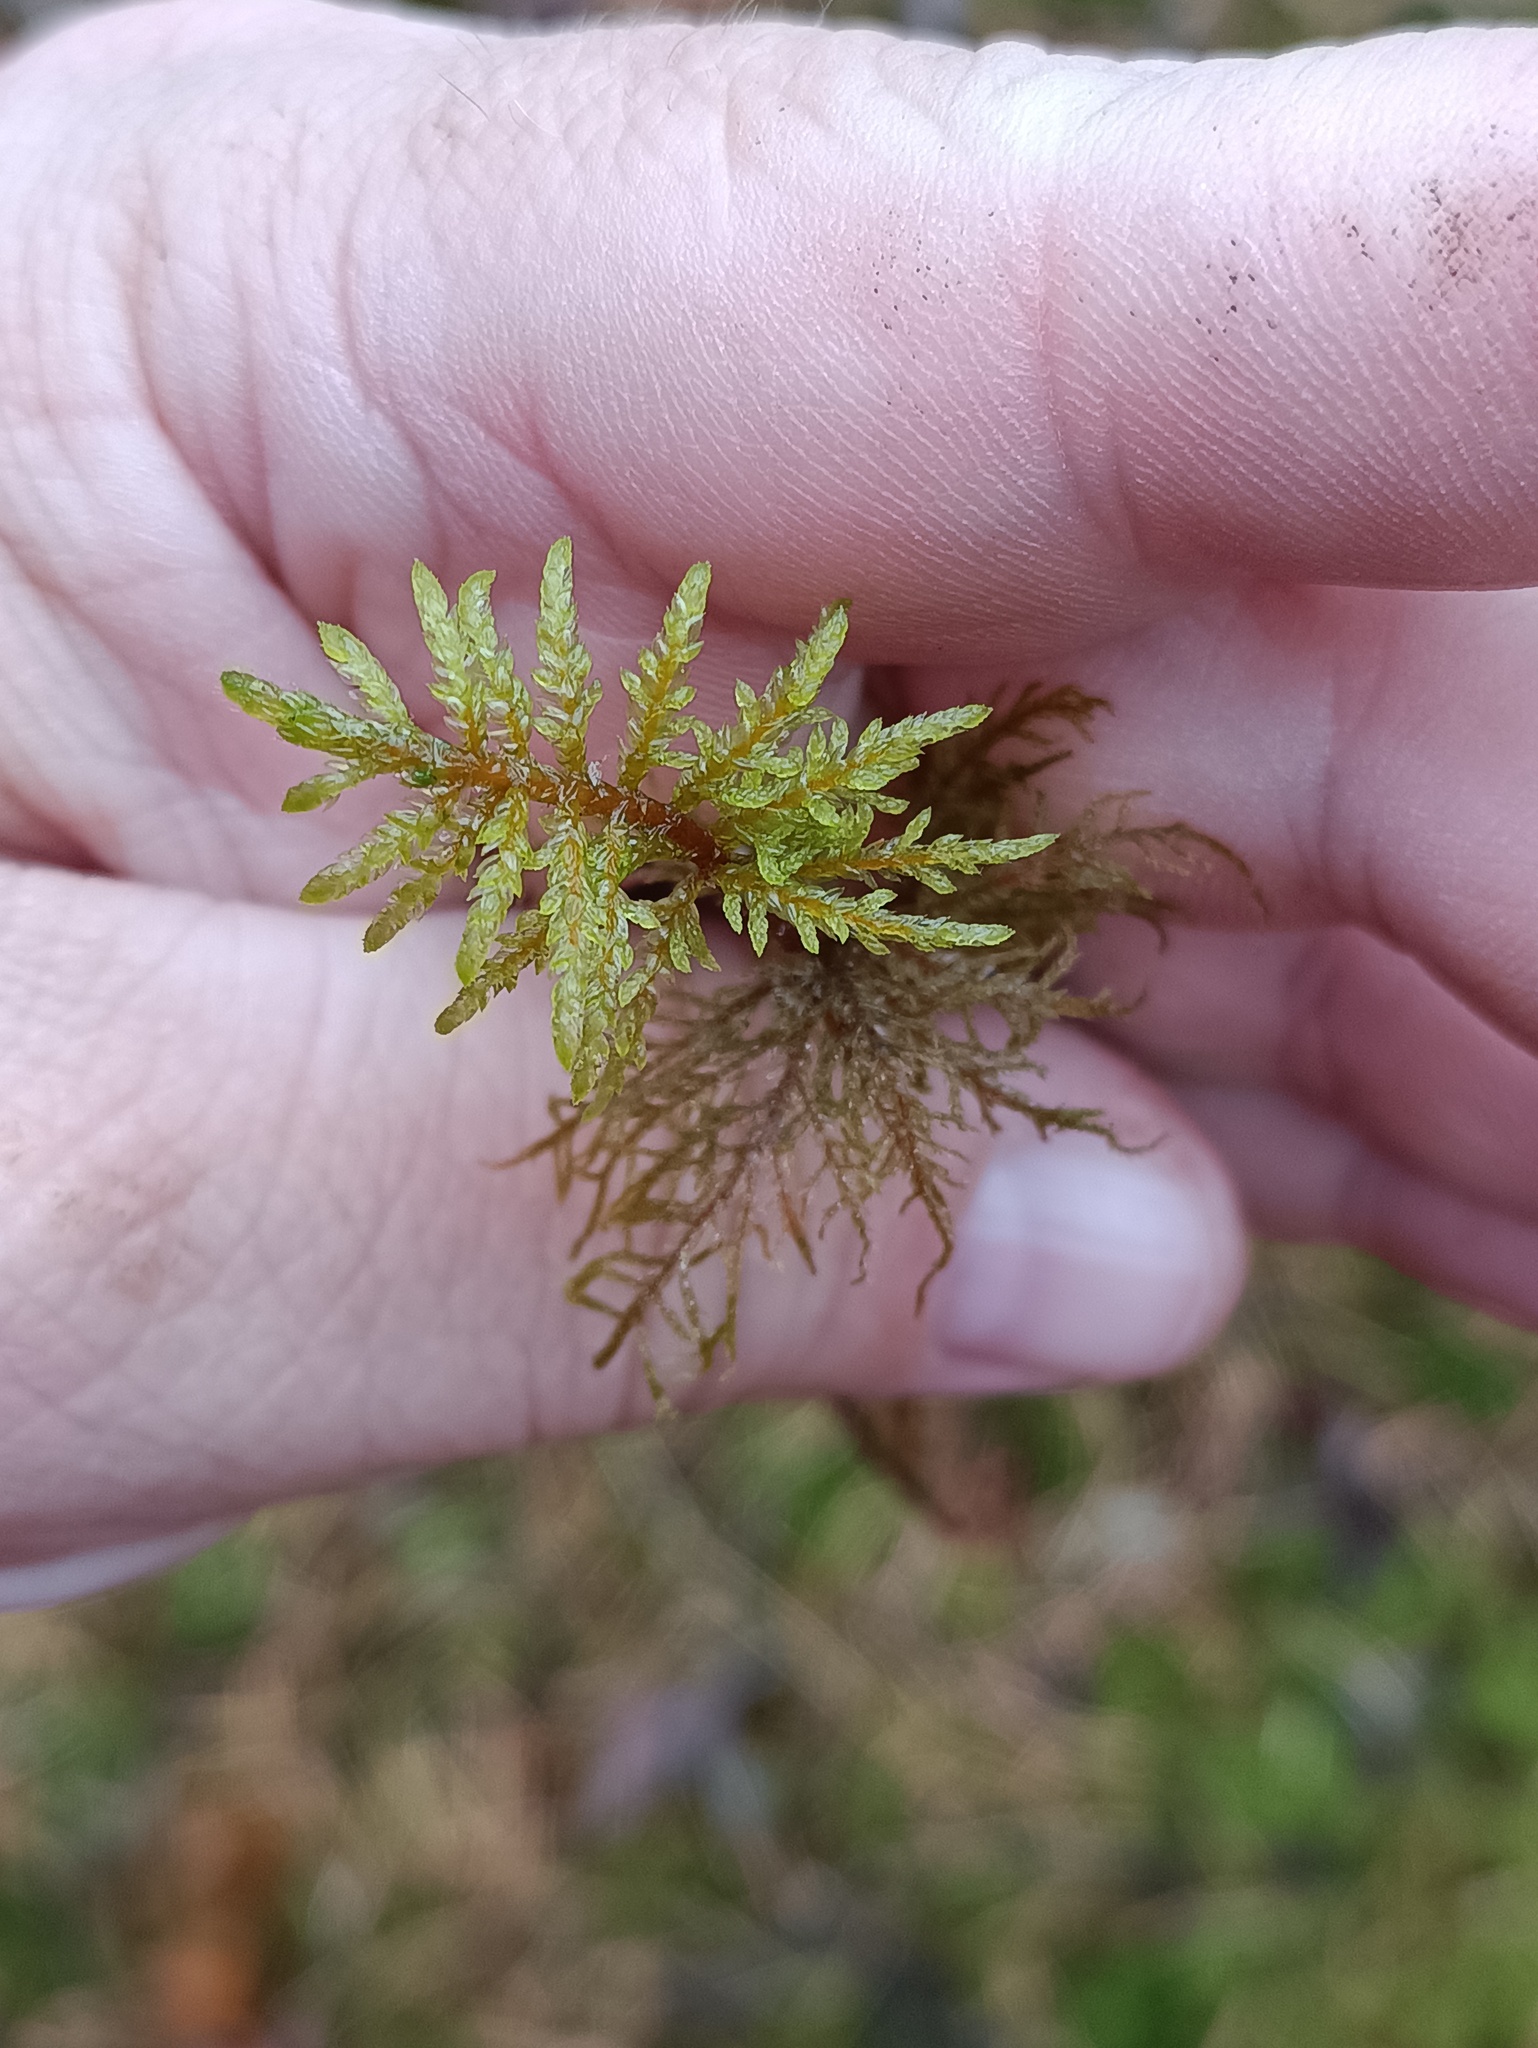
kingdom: Plantae
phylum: Bryophyta
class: Bryopsida
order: Hypnales
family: Hylocomiaceae
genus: Hylocomium
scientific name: Hylocomium splendens
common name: Stairstep moss
